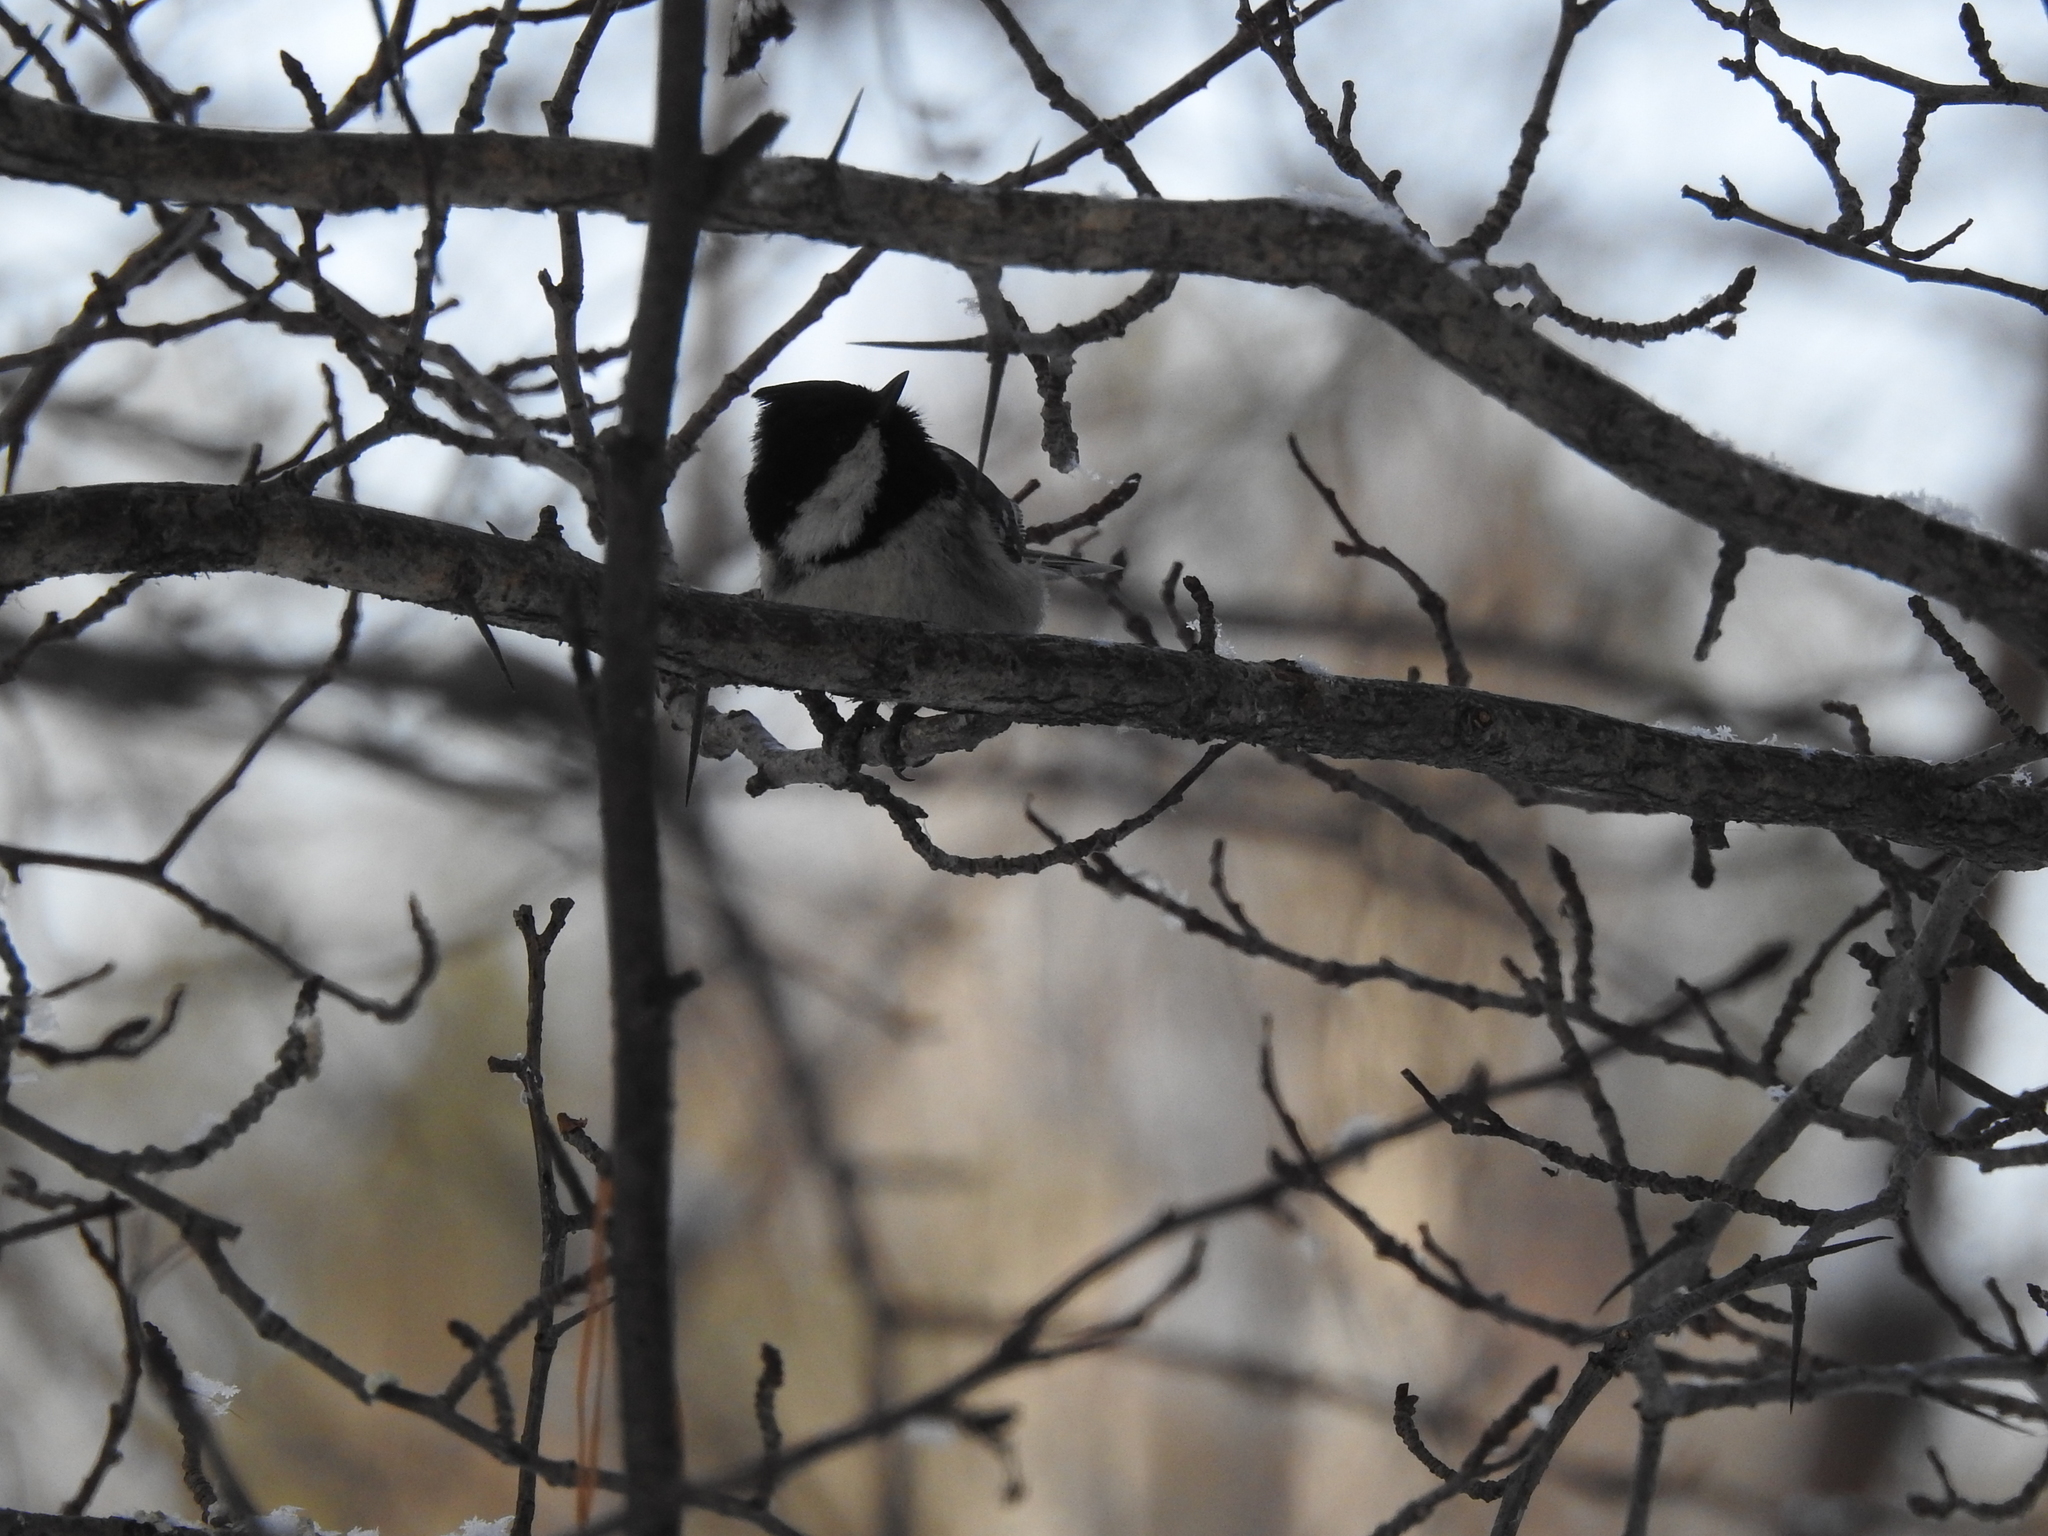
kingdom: Animalia
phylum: Chordata
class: Aves
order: Passeriformes
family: Paridae
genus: Periparus
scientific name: Periparus ater
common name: Coal tit
